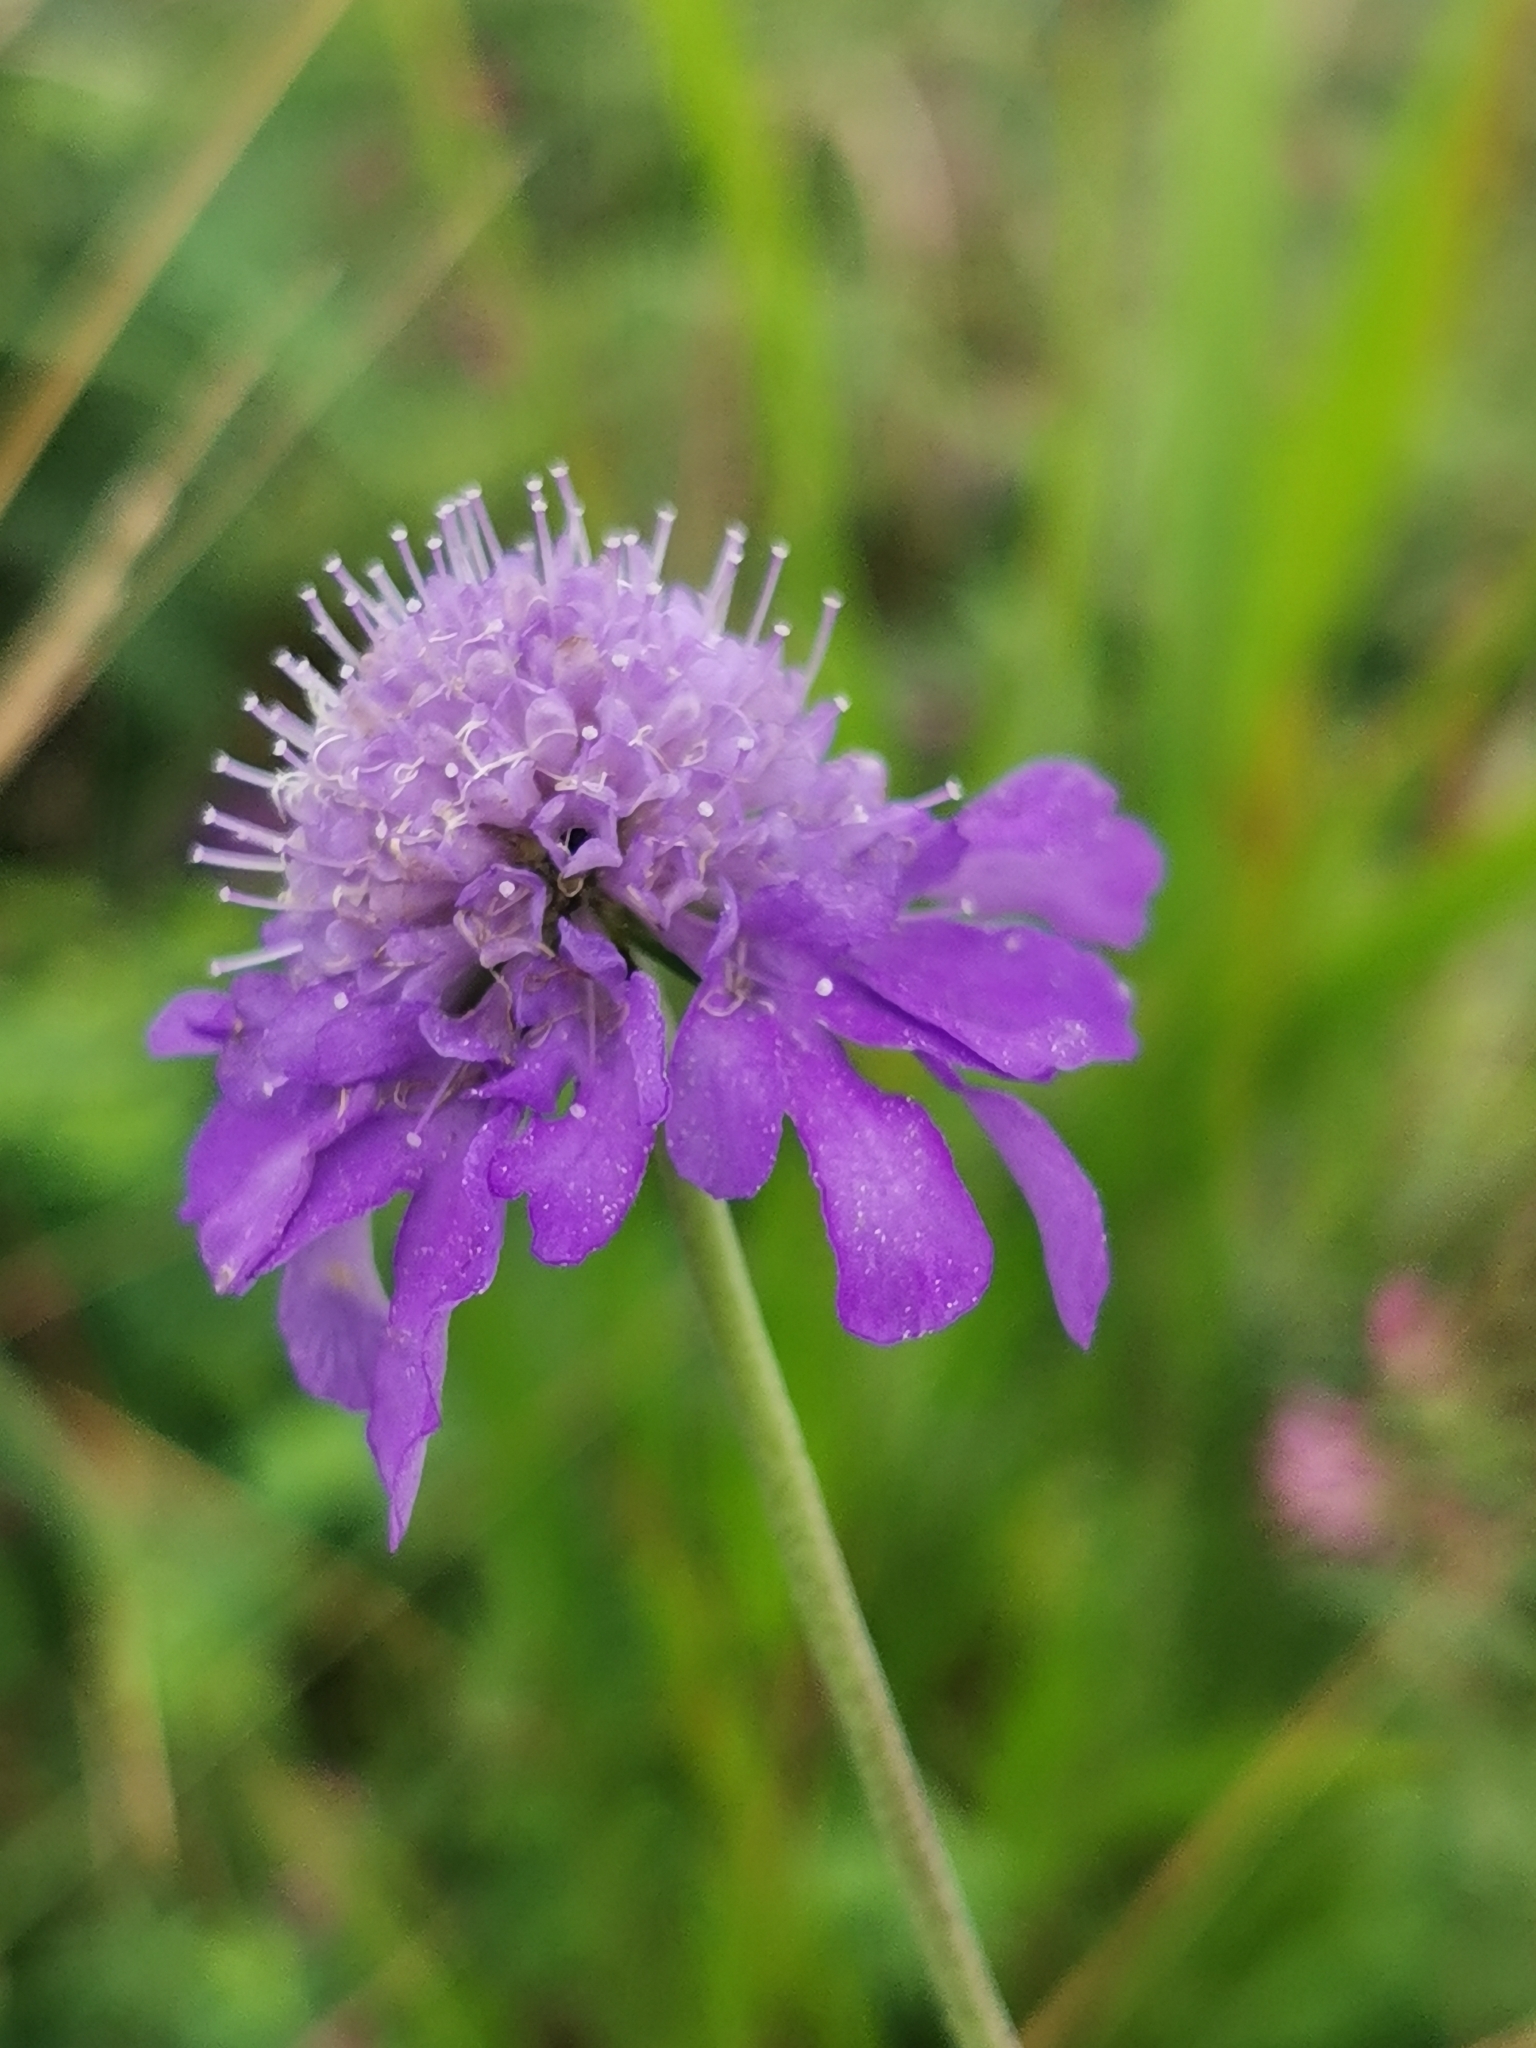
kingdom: Plantae
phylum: Tracheophyta
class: Magnoliopsida
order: Dipsacales
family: Caprifoliaceae
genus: Scabiosa
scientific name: Scabiosa lachnophylla
